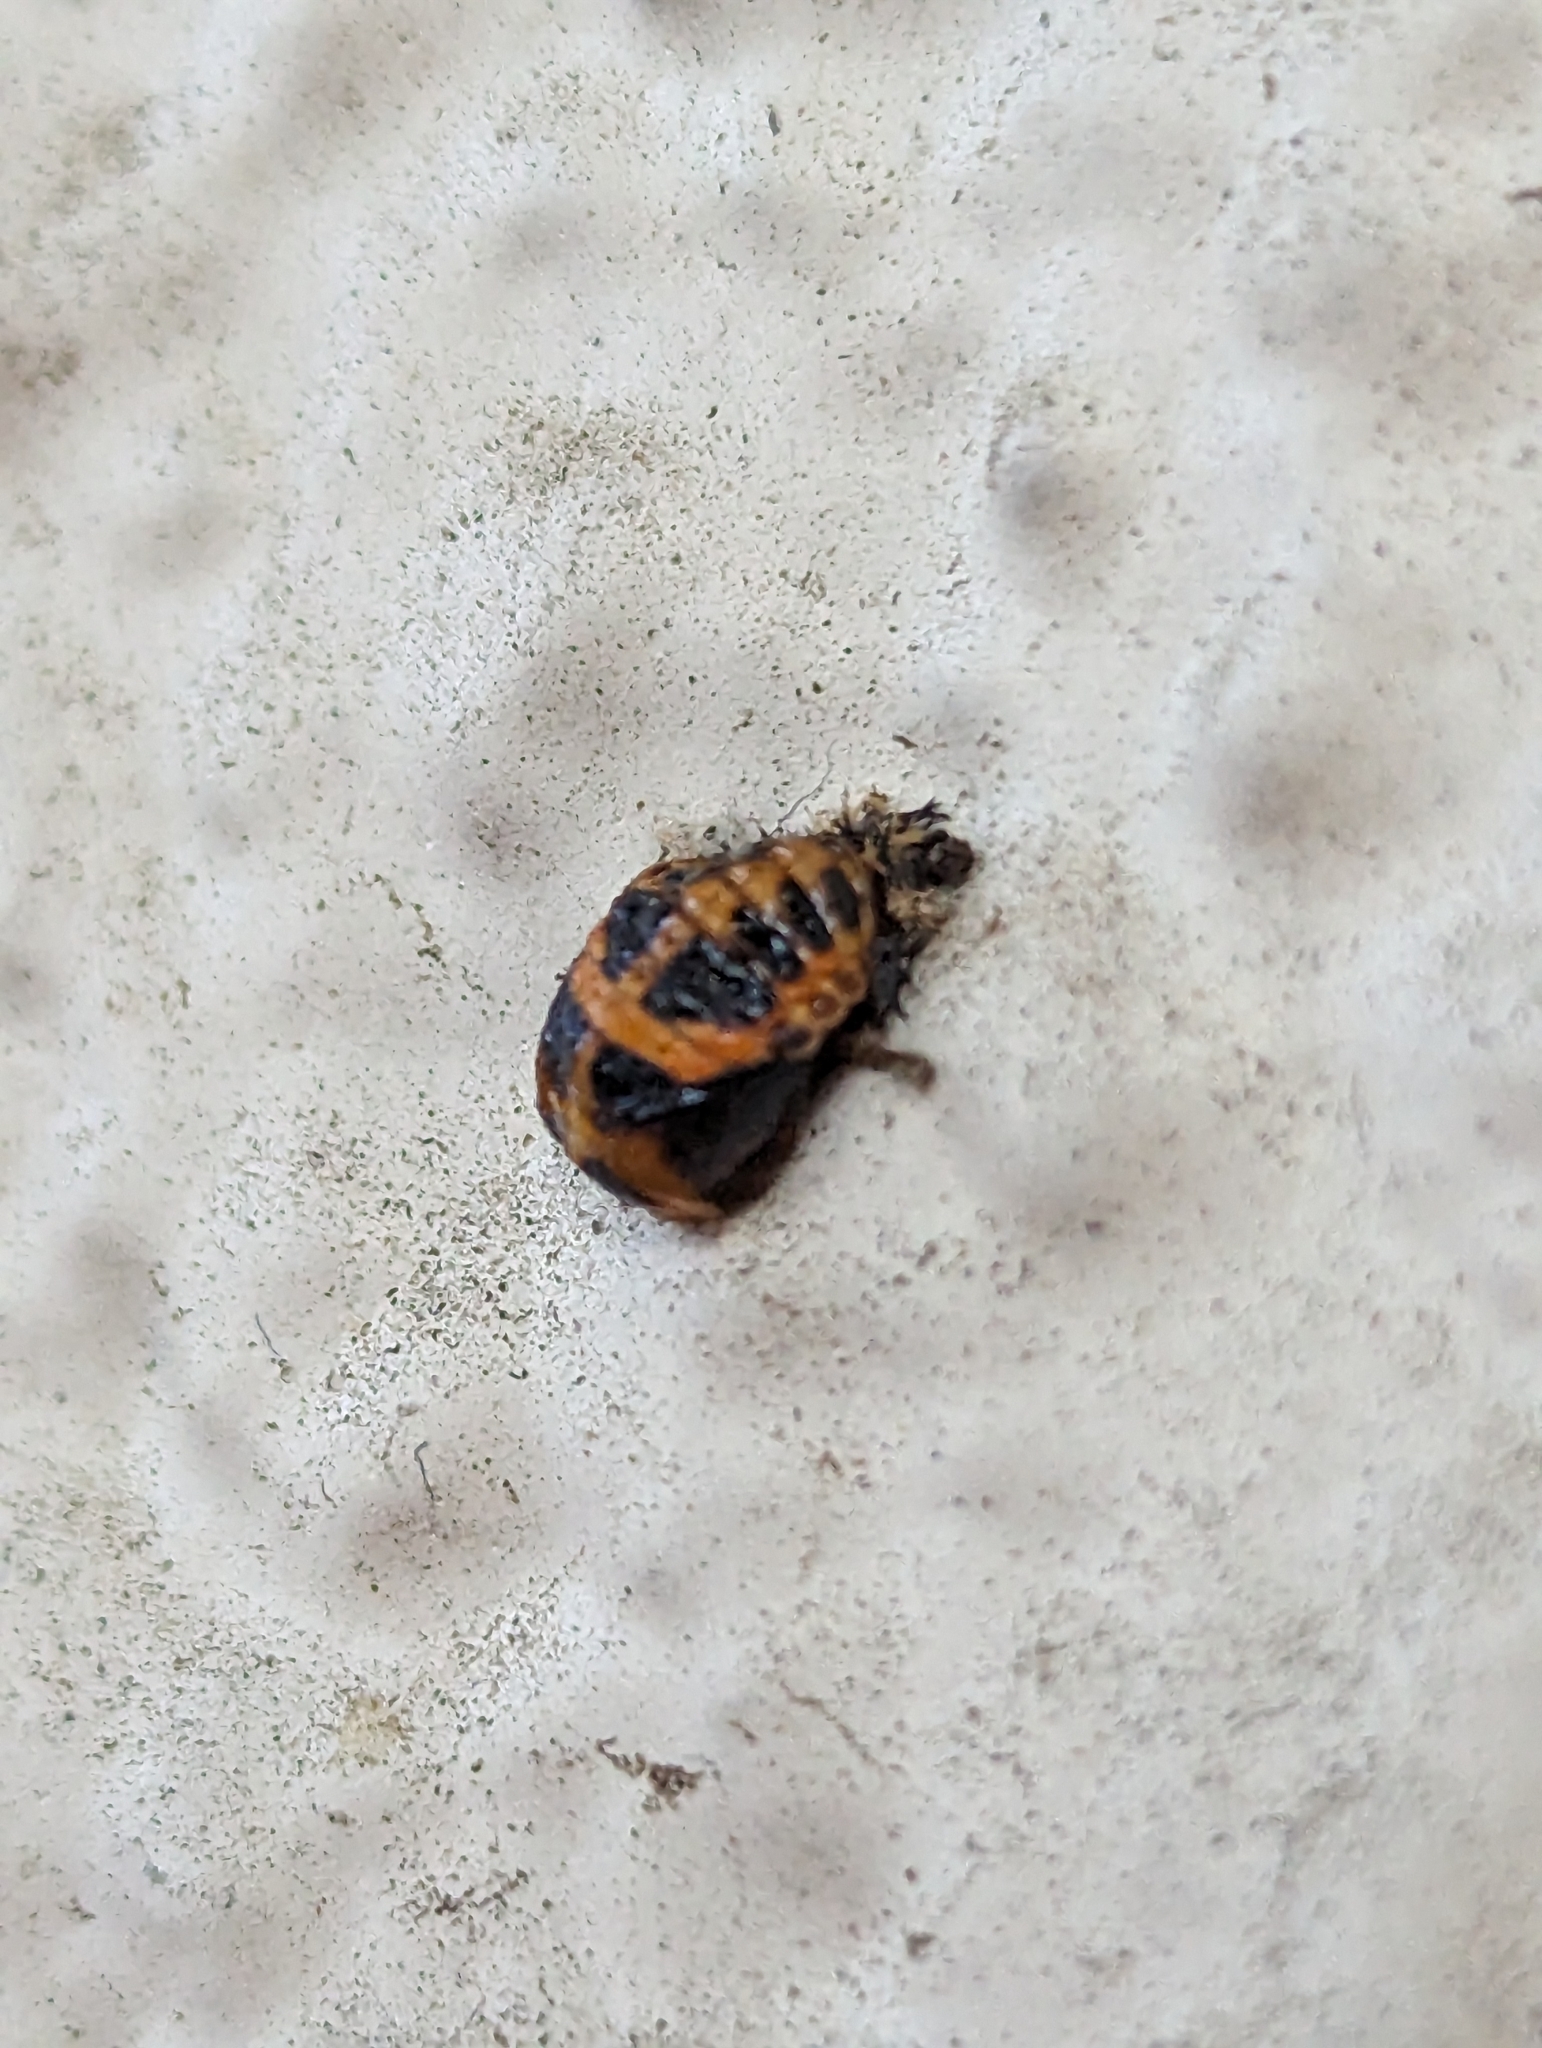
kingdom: Animalia
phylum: Arthropoda
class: Insecta
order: Coleoptera
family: Coccinellidae
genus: Harmonia
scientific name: Harmonia axyridis
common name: Harlequin ladybird
